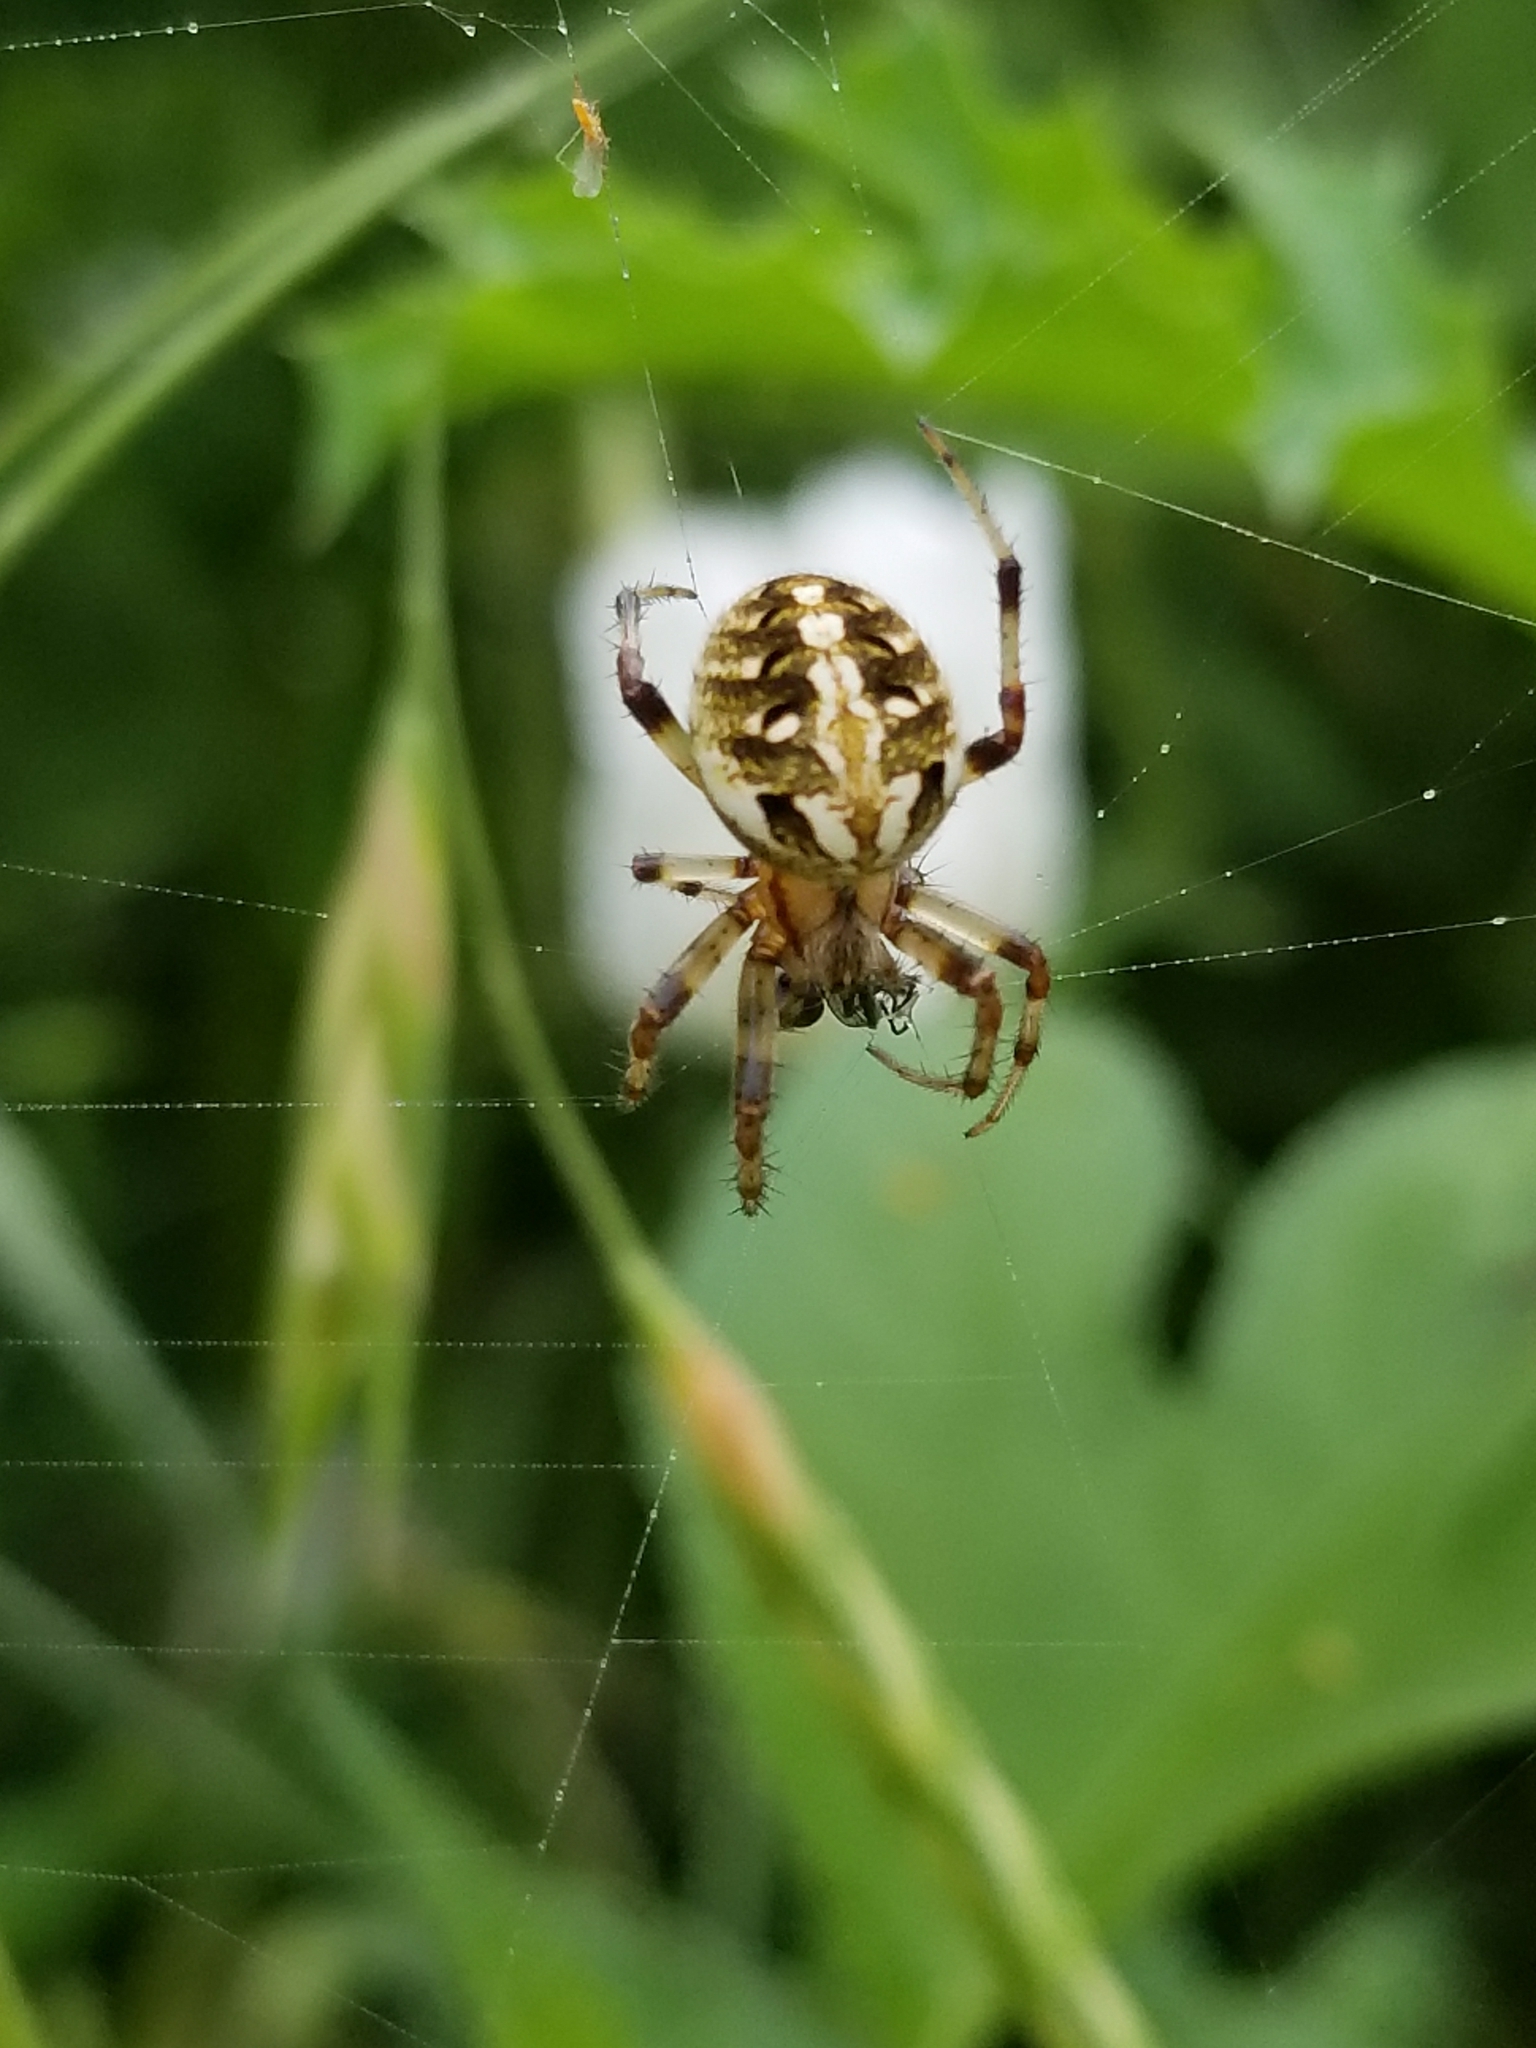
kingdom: Animalia
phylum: Arthropoda
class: Arachnida
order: Araneae
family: Araneidae
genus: Neoscona
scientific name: Neoscona arabesca
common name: Orb weavers
